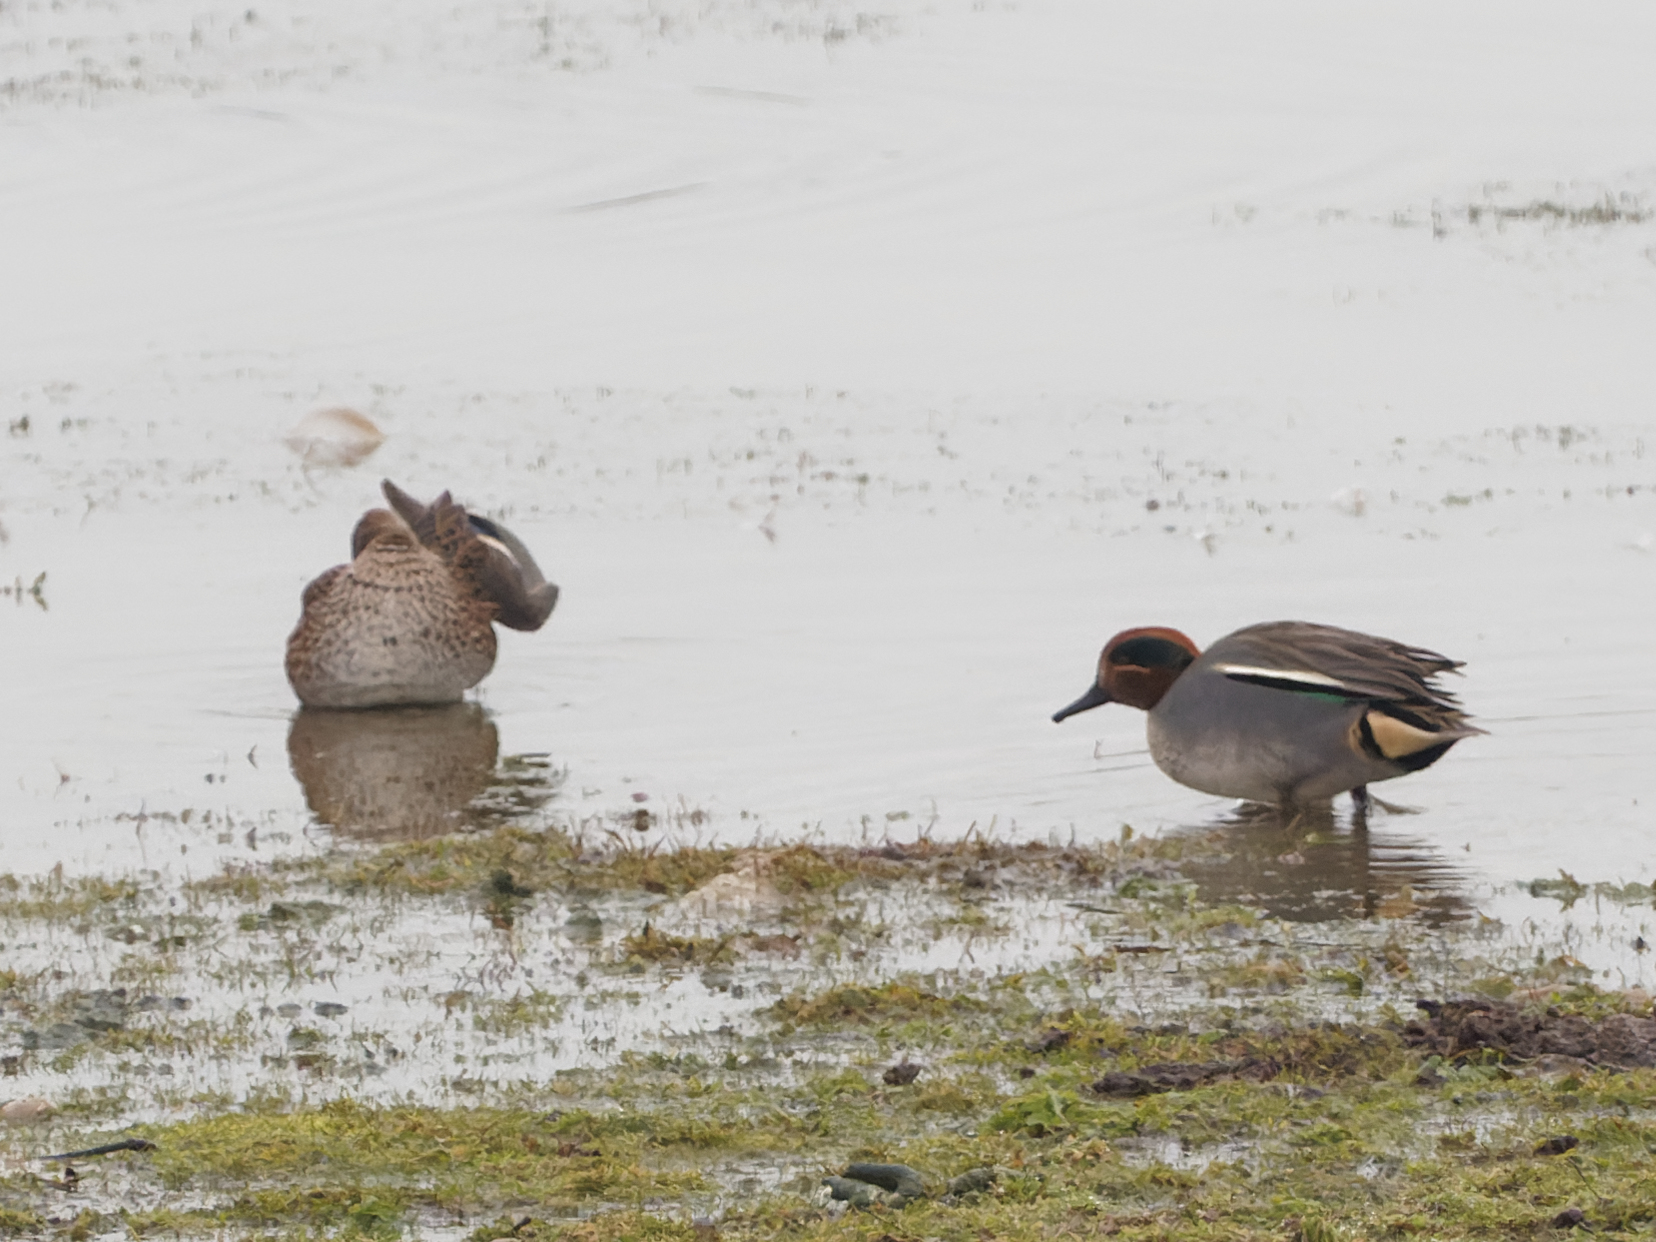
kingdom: Animalia
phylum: Chordata
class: Aves
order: Anseriformes
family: Anatidae
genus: Anas
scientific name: Anas crecca
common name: Eurasian teal
